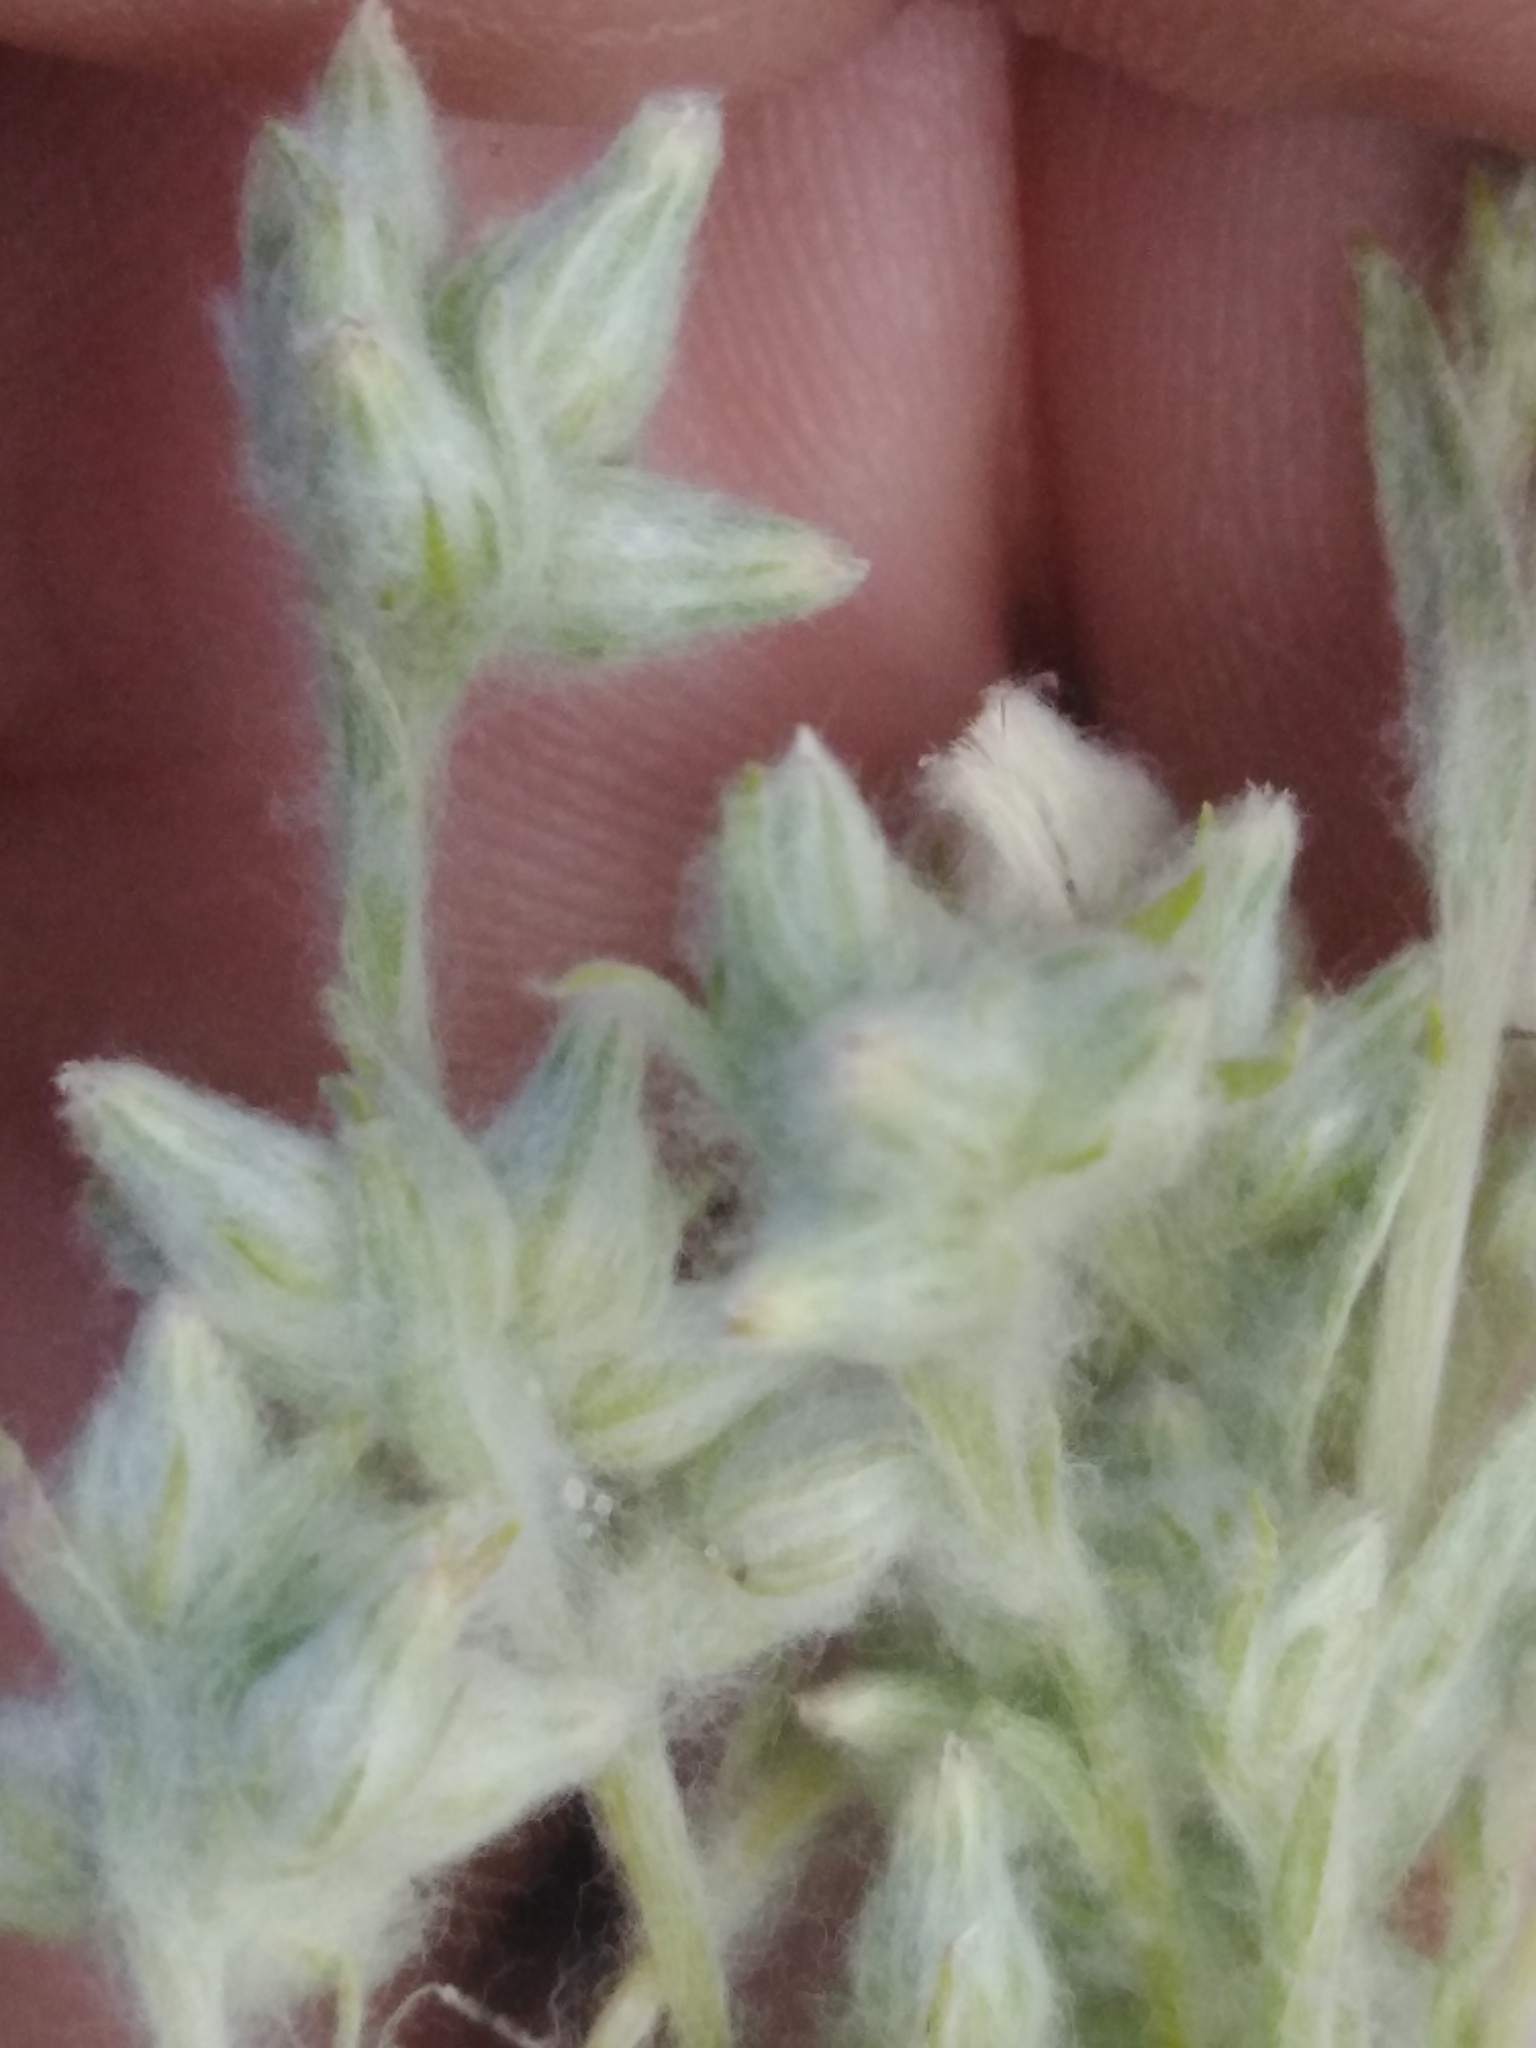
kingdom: Plantae
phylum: Tracheophyta
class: Magnoliopsida
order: Asterales
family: Asteraceae
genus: Filago
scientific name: Filago arvensis
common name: Field cudweed
